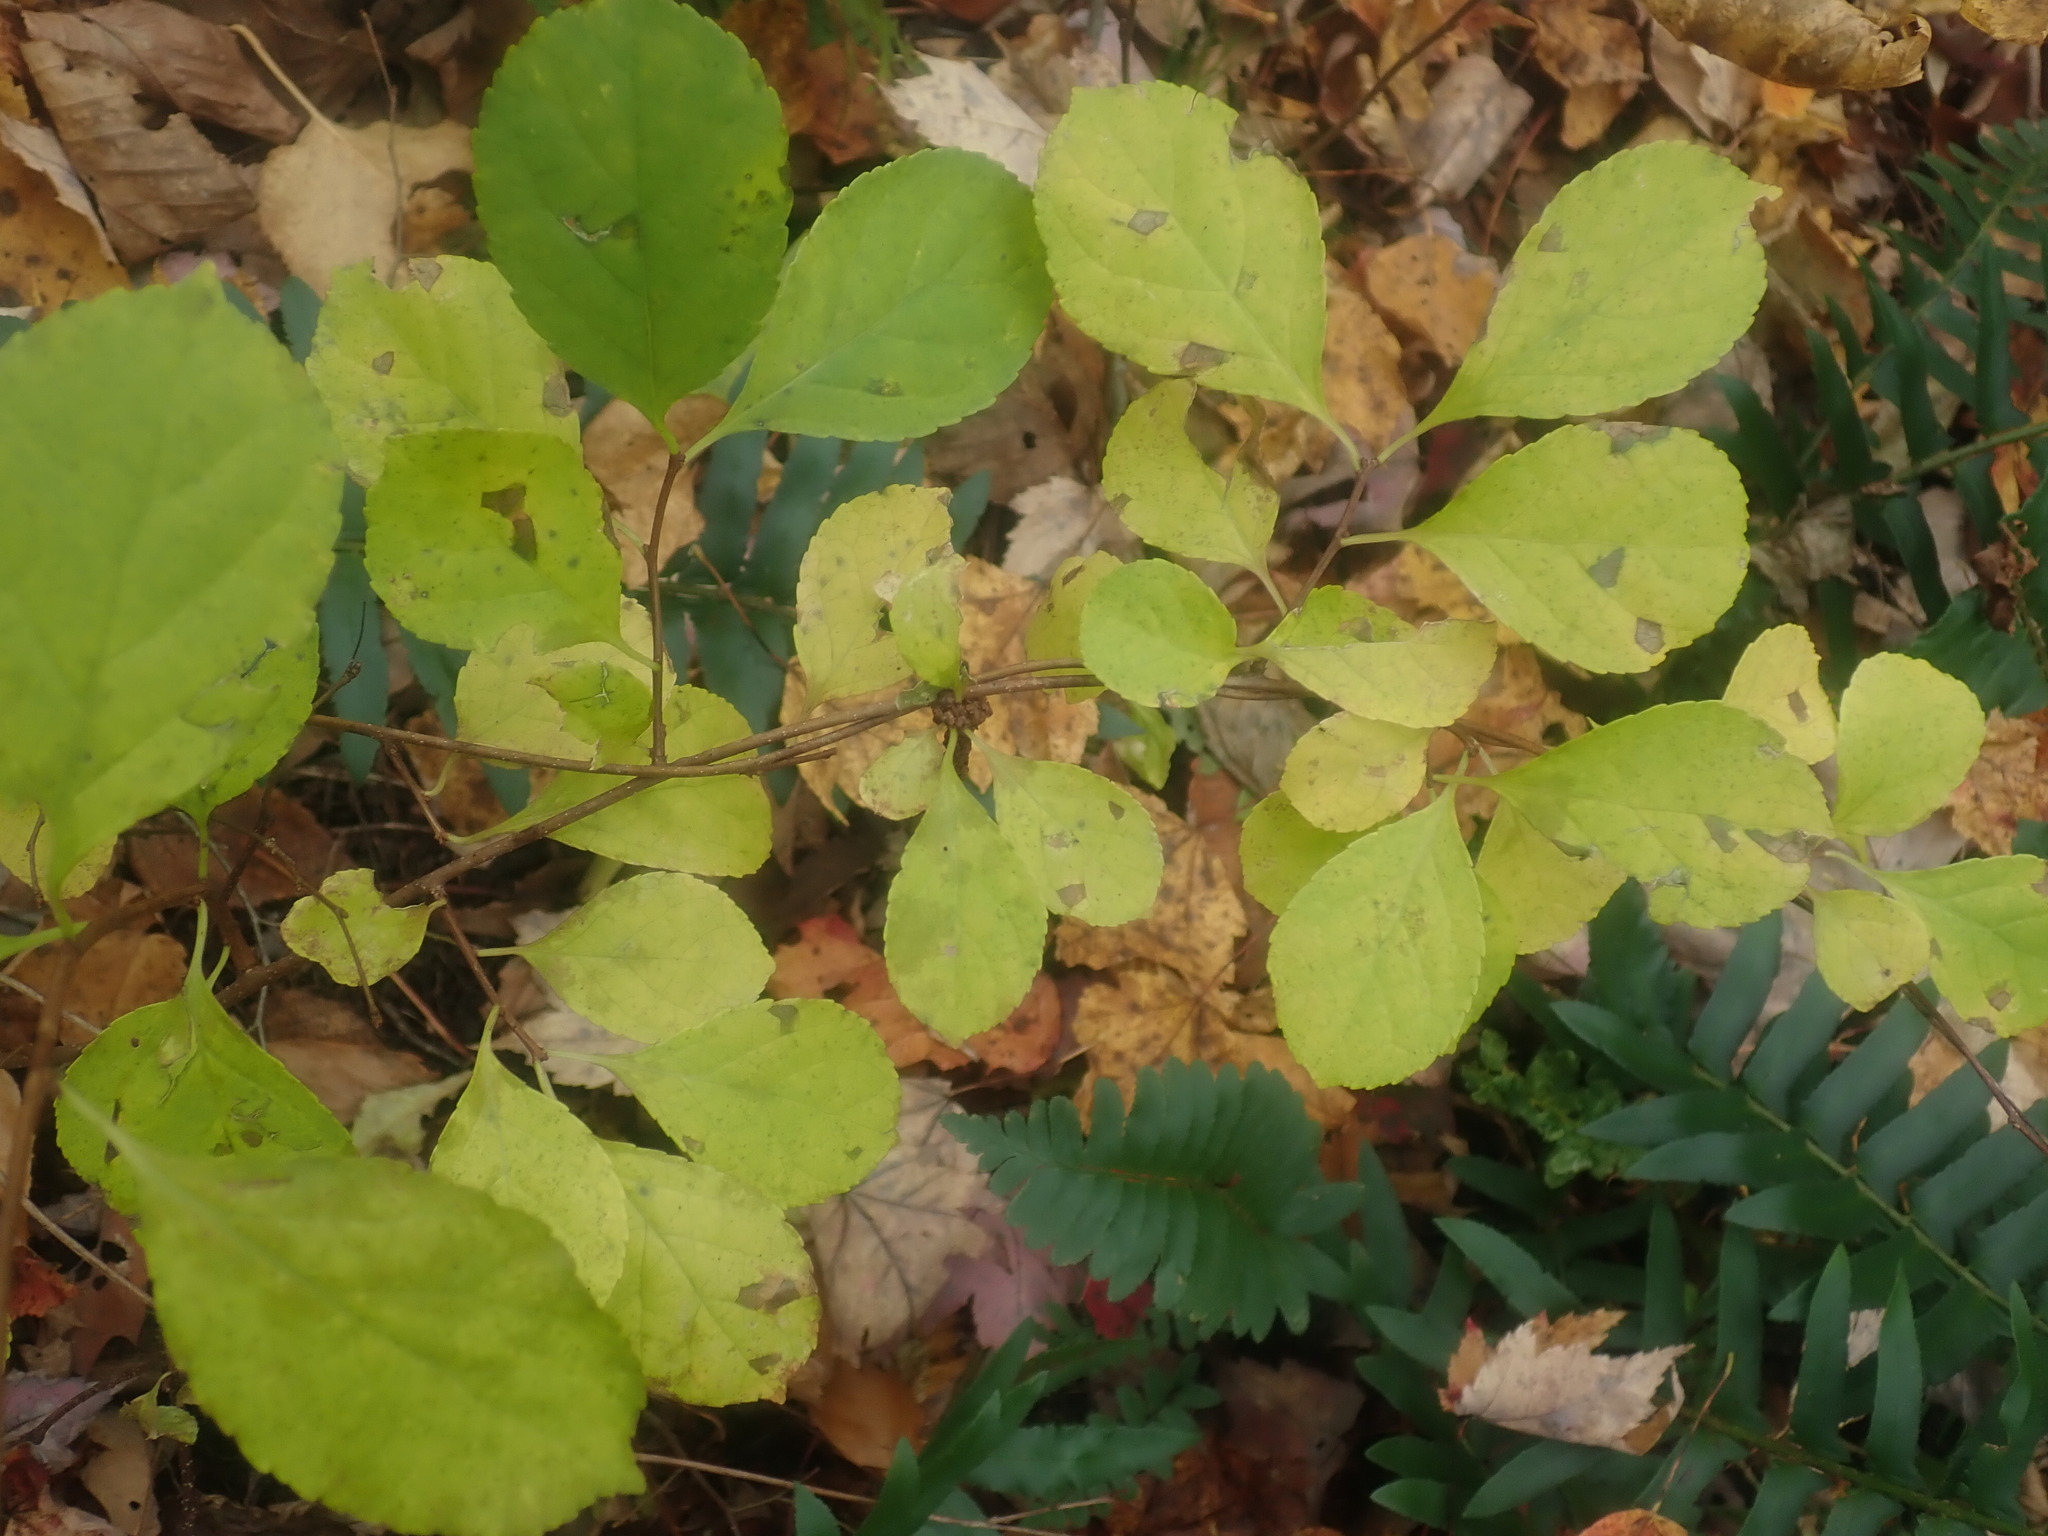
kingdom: Plantae
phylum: Tracheophyta
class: Magnoliopsida
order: Celastrales
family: Celastraceae
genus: Celastrus
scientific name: Celastrus orbiculatus
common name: Oriental bittersweet
